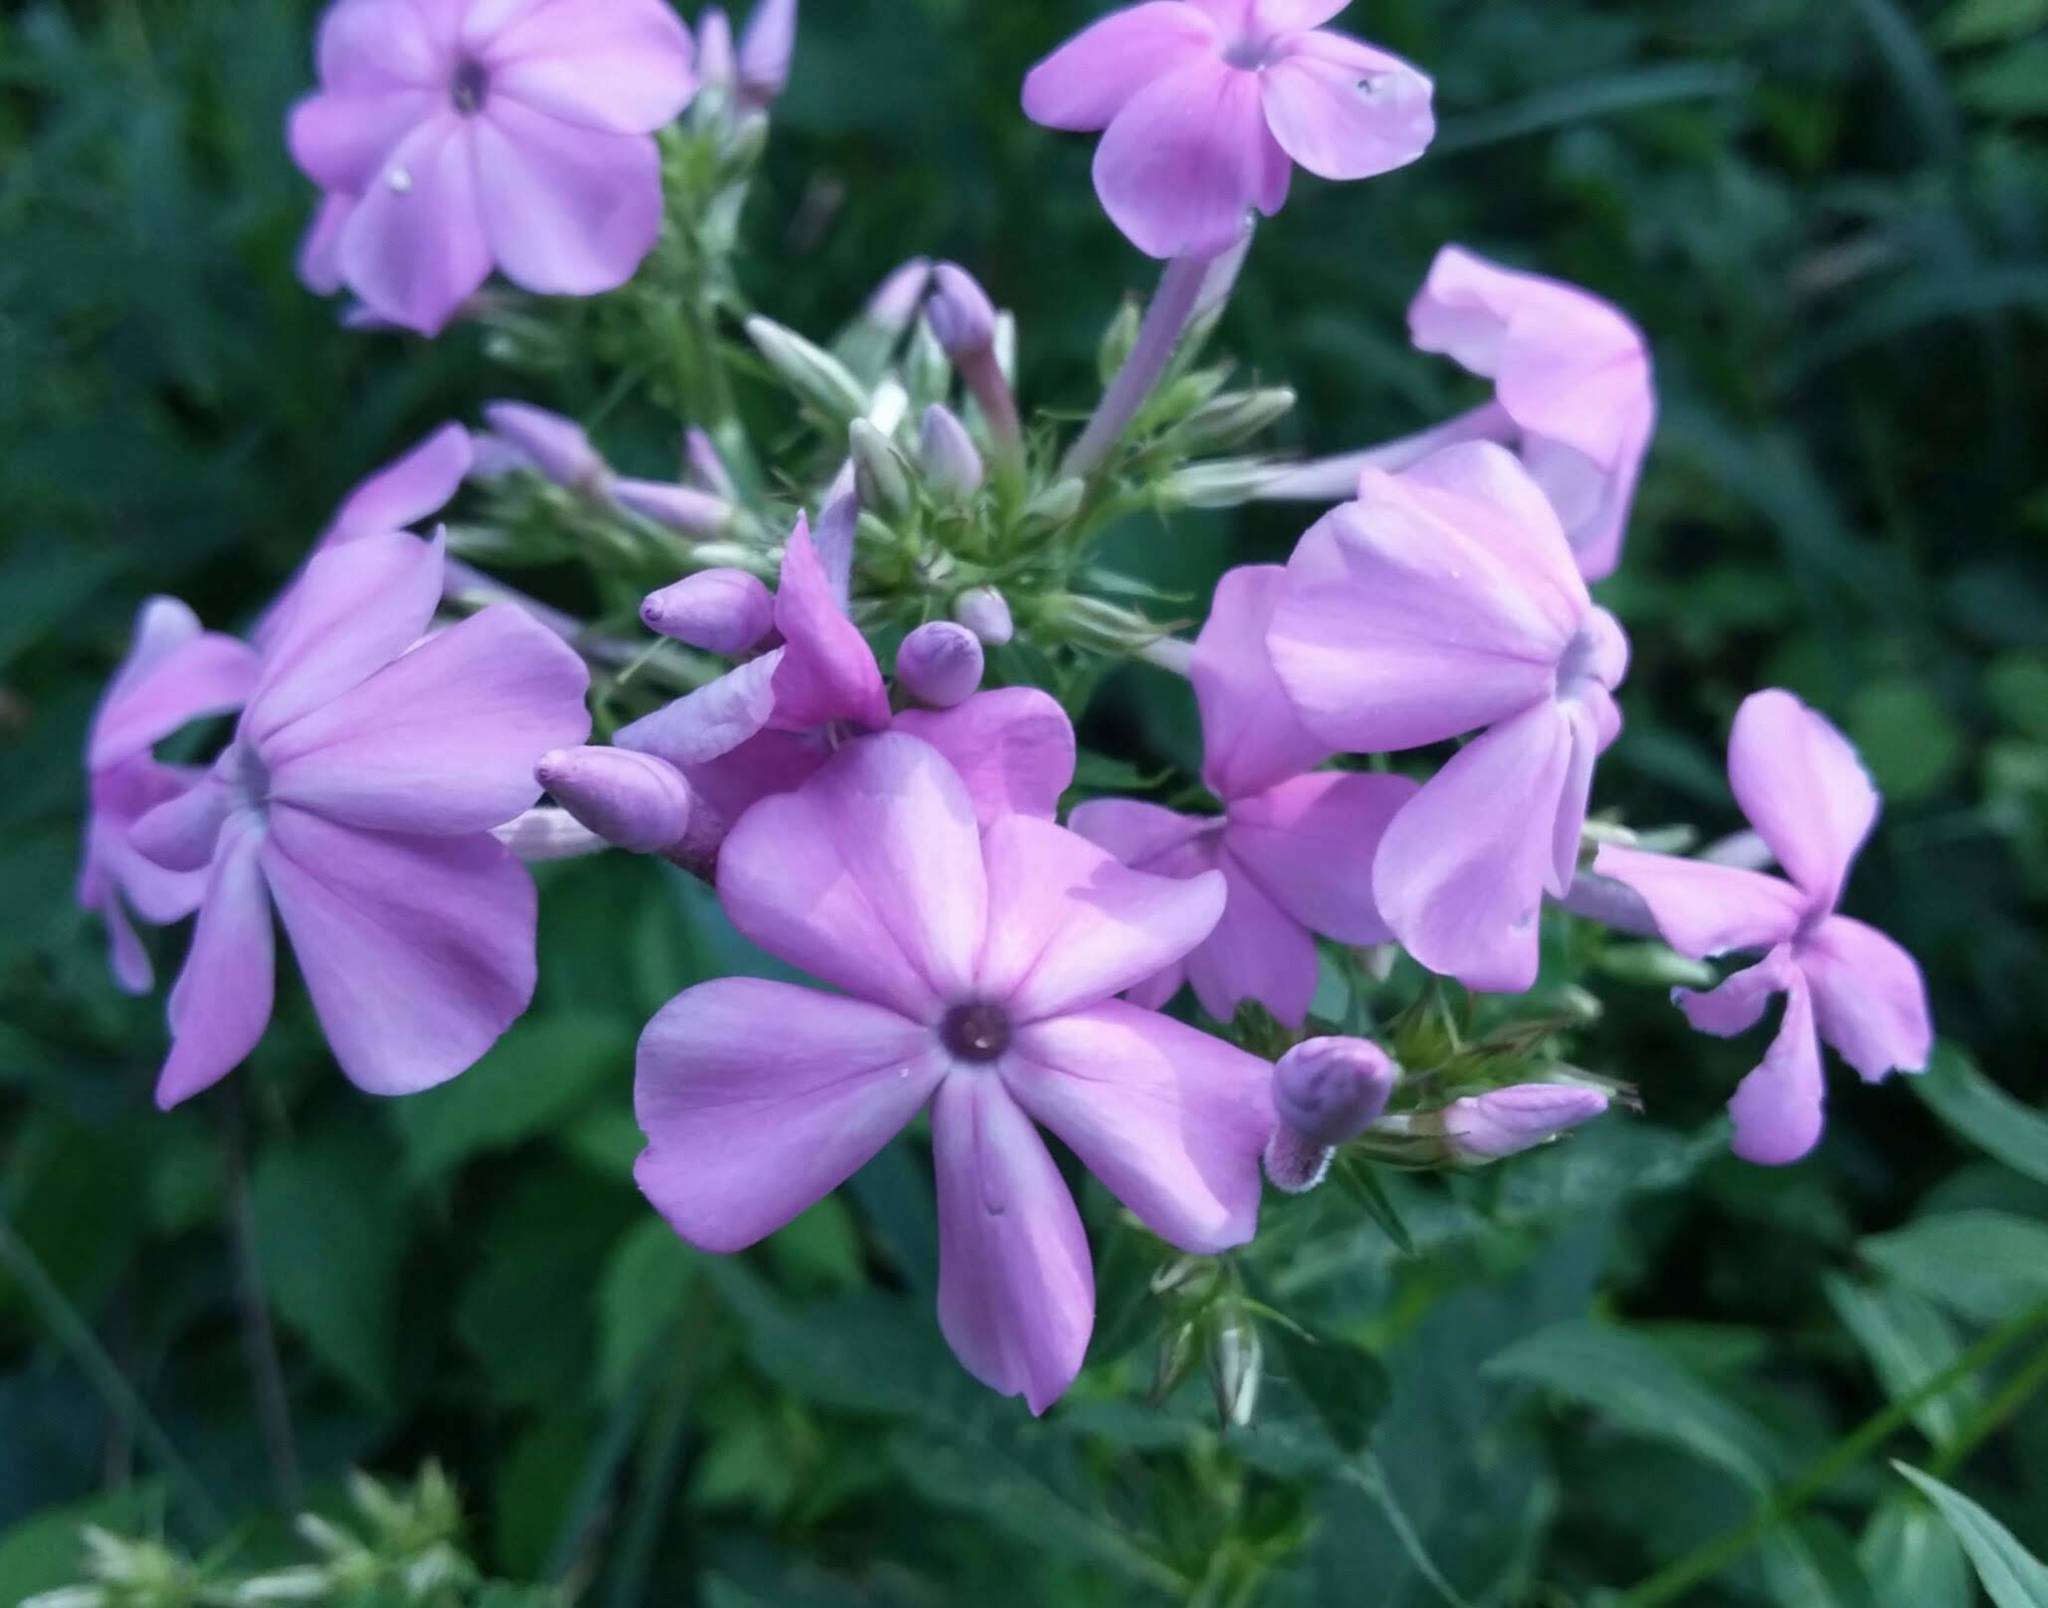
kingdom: Plantae
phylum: Tracheophyta
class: Magnoliopsida
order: Ericales
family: Polemoniaceae
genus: Phlox
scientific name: Phlox paniculata
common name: Fall phlox
